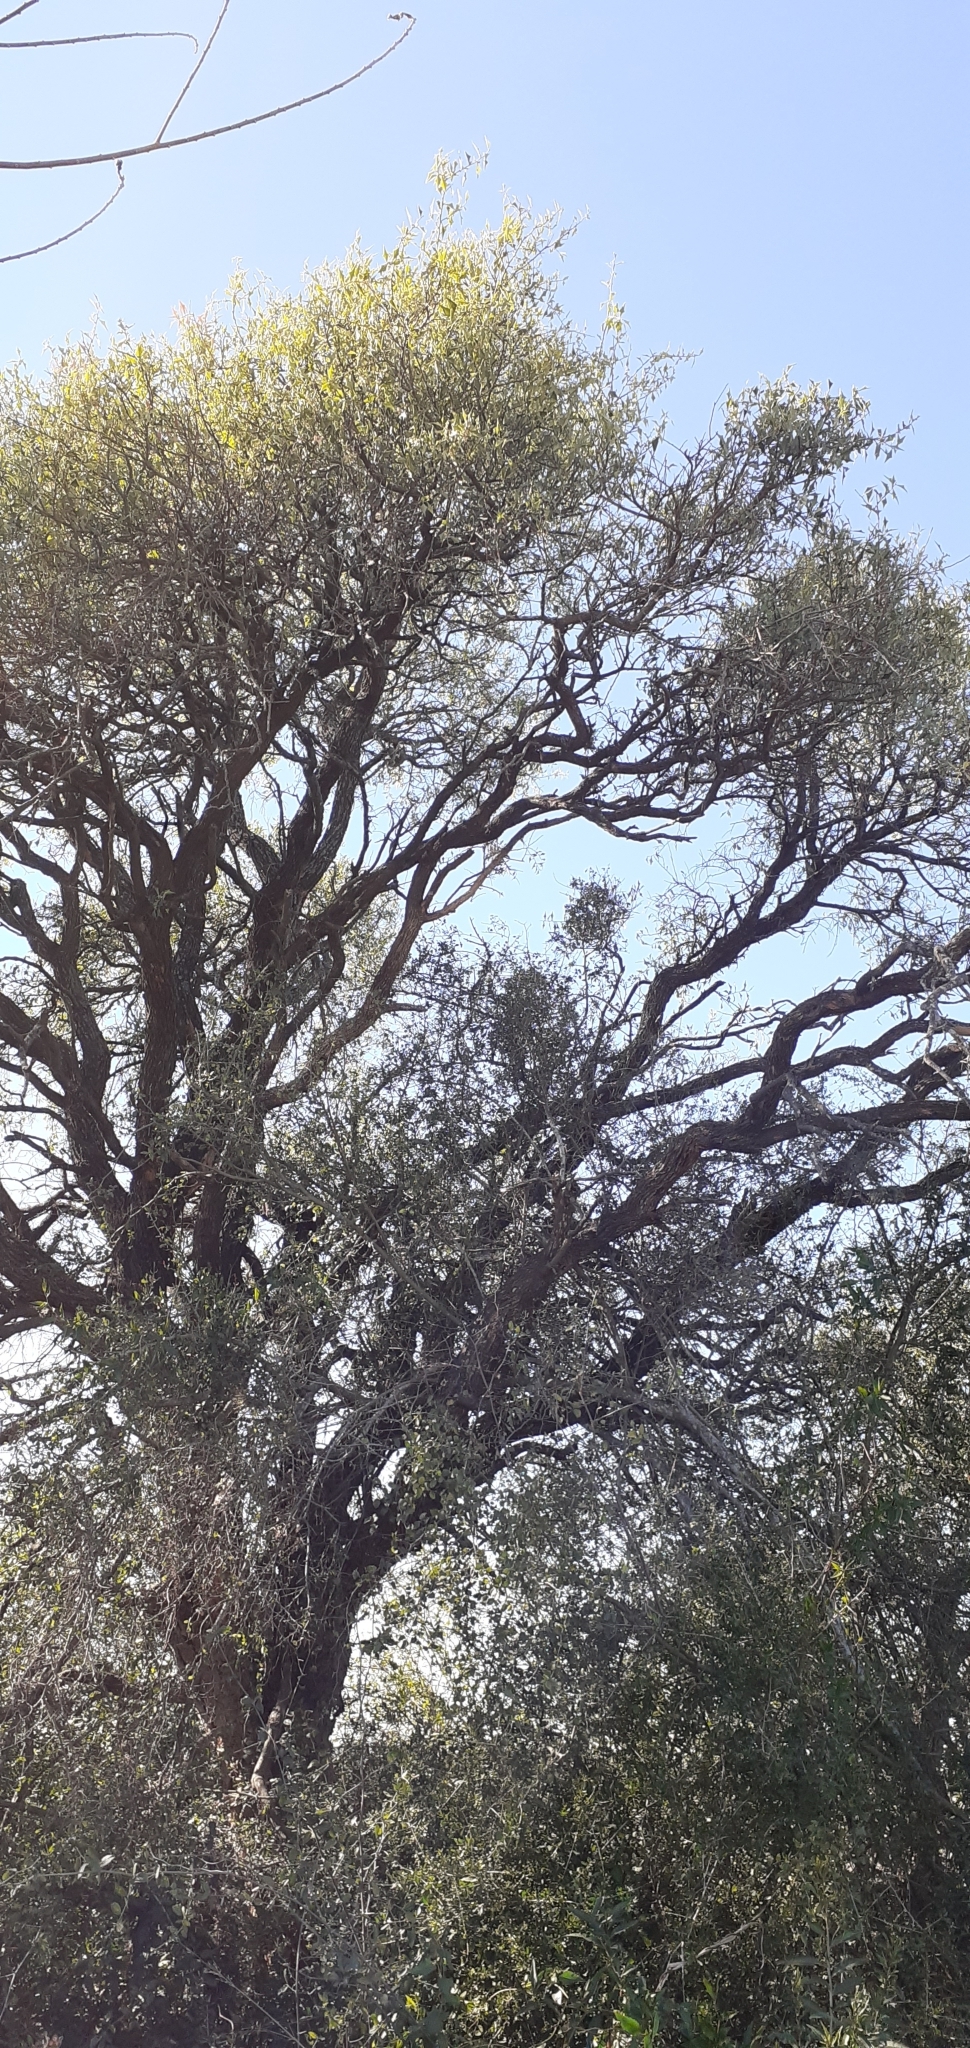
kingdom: Plantae
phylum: Tracheophyta
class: Magnoliopsida
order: Santalales
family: Cervantesiaceae
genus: Jodina
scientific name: Jodina rhombifolia
